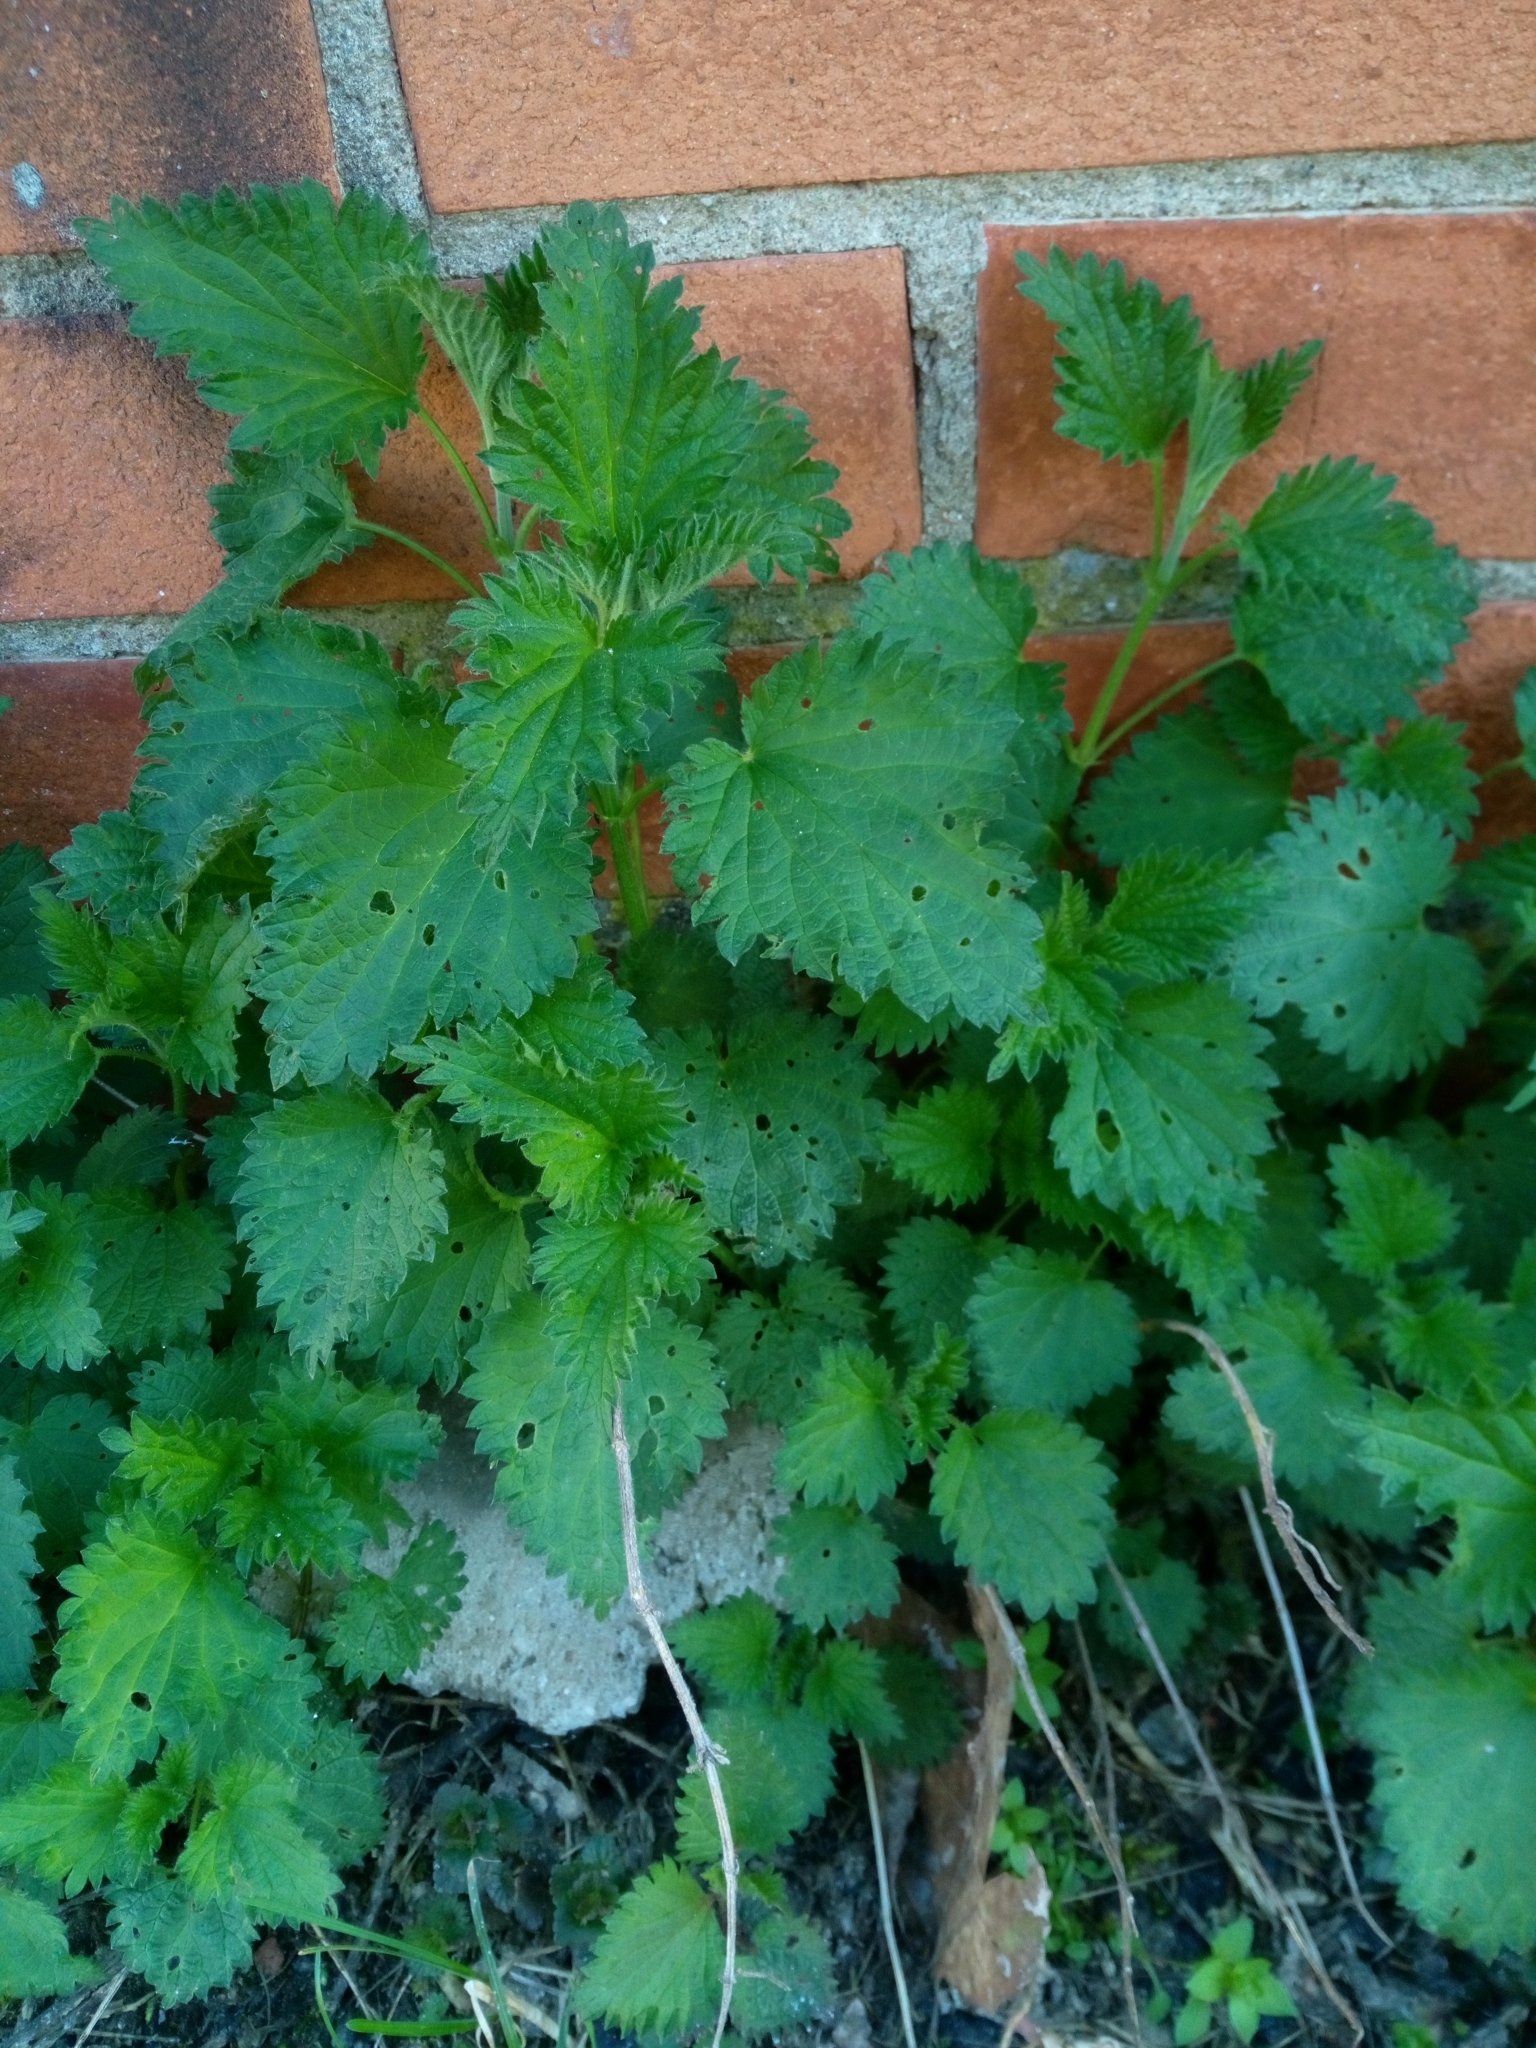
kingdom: Plantae
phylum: Tracheophyta
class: Magnoliopsida
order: Rosales
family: Urticaceae
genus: Urtica
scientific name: Urtica dioica
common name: Common nettle
